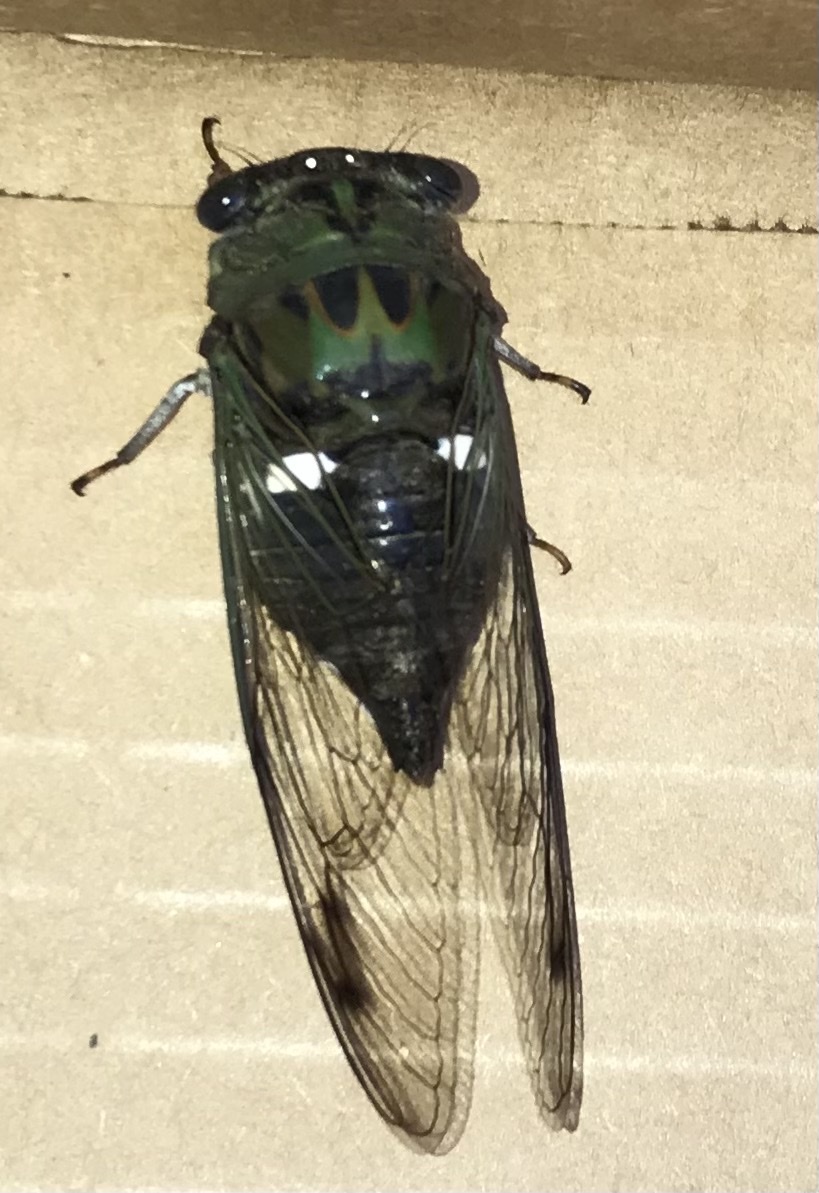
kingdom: Animalia
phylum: Arthropoda
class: Insecta
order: Hemiptera
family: Cicadidae
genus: Neotibicen
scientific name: Neotibicen pruinosus
